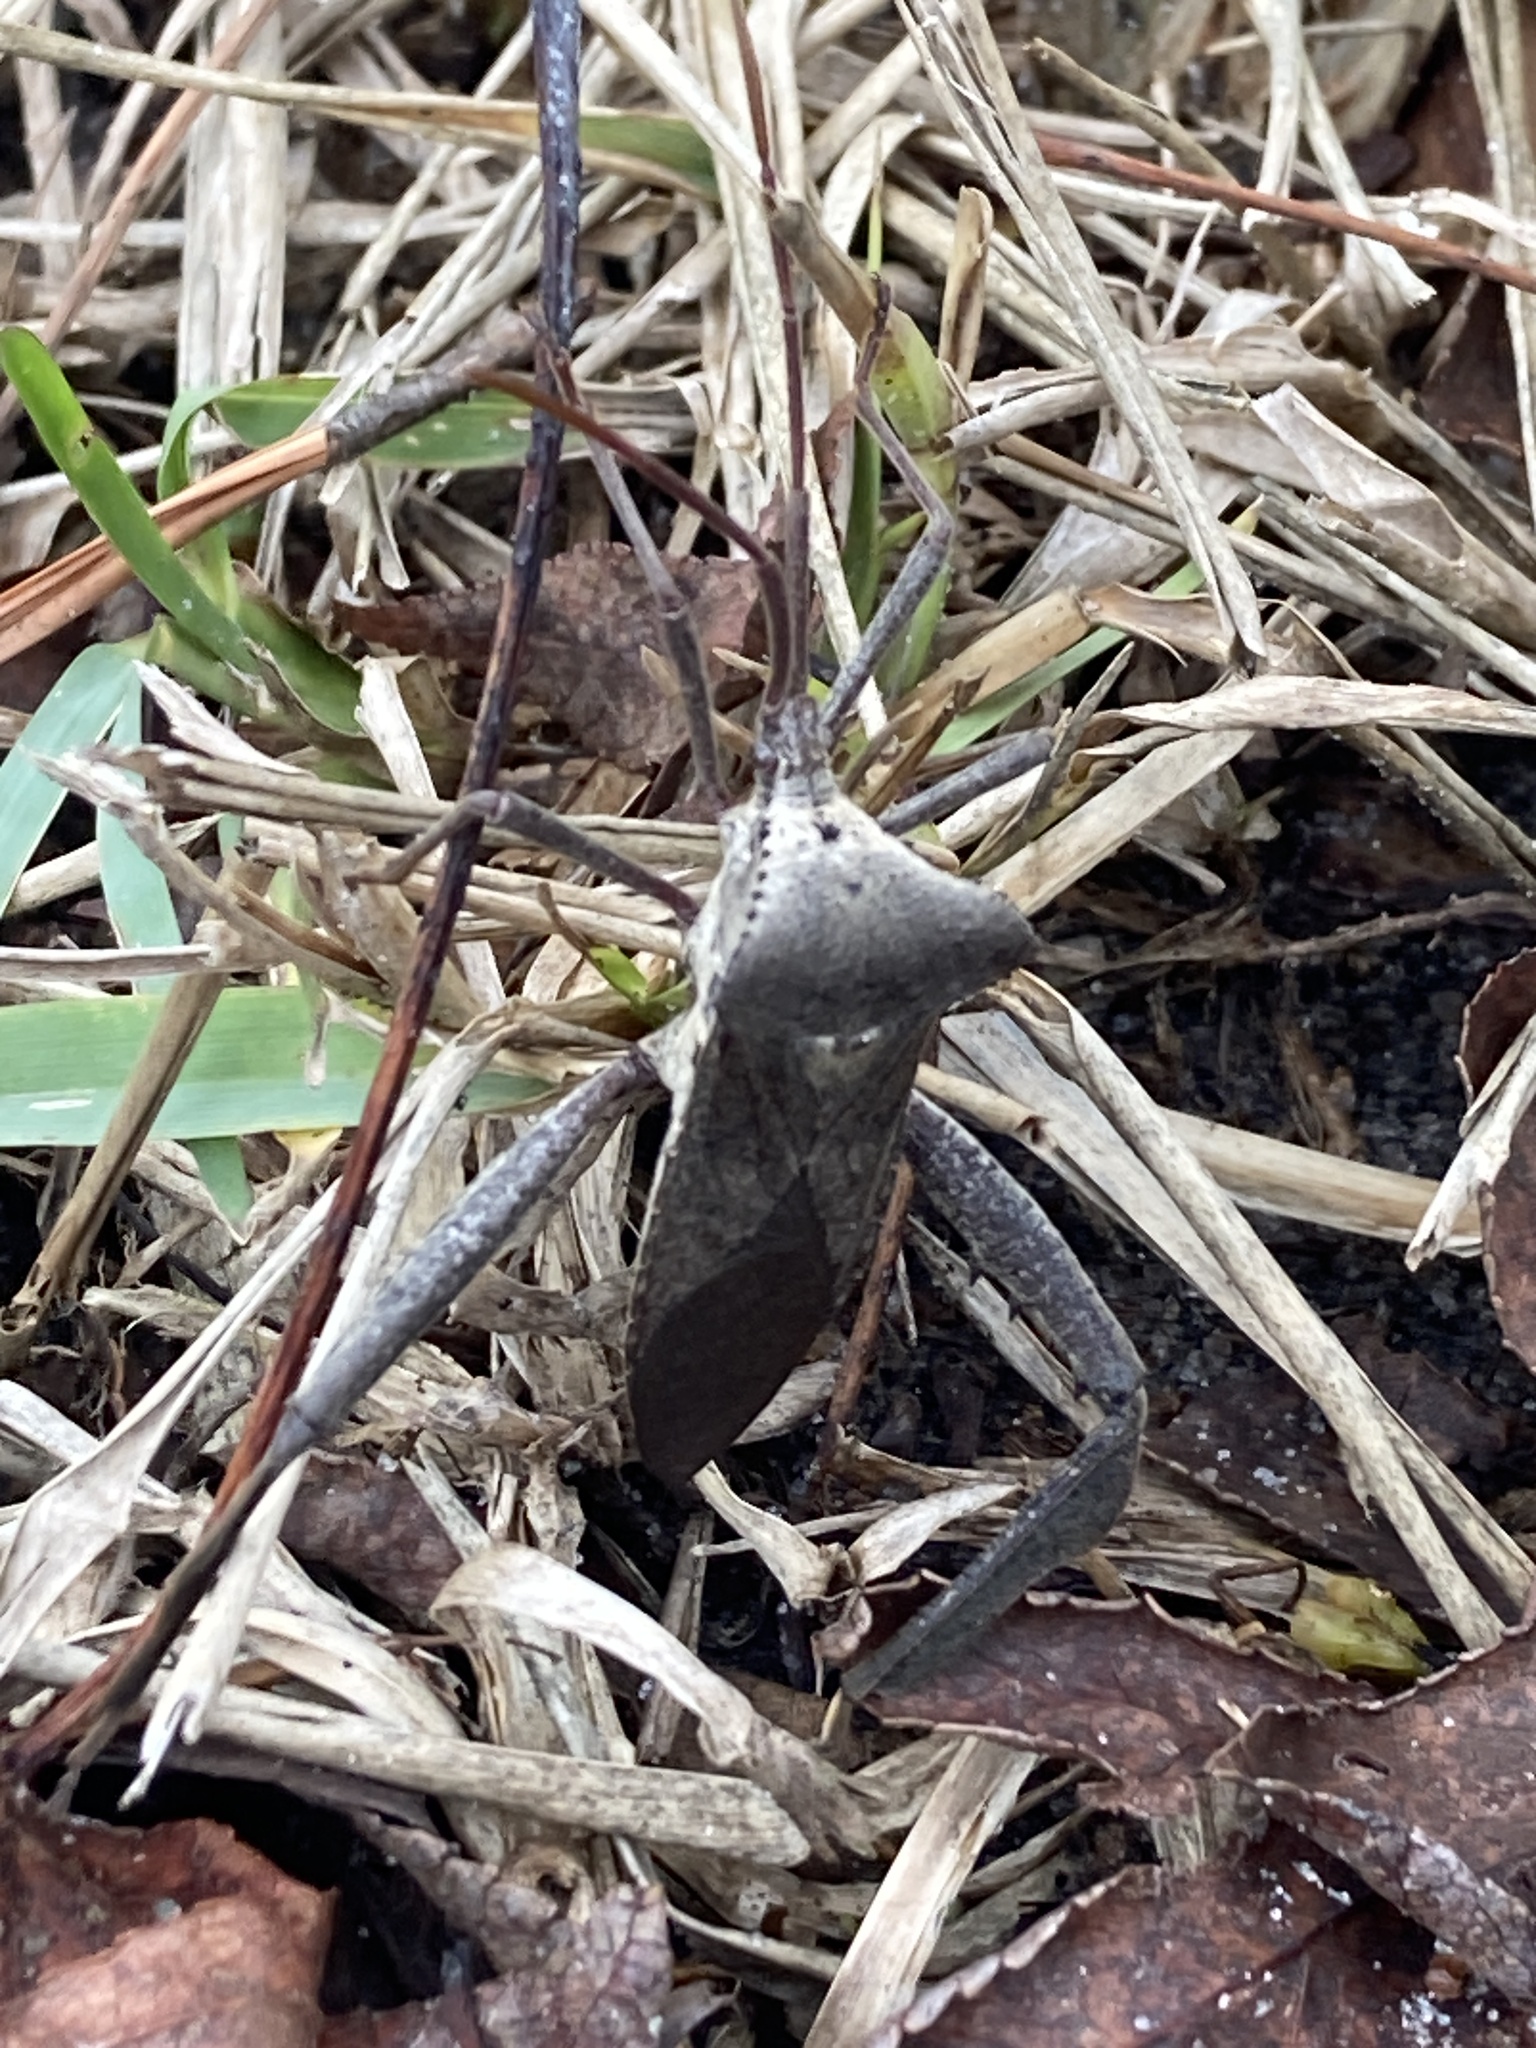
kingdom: Animalia
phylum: Arthropoda
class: Insecta
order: Hemiptera
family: Coreidae
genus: Acanthocephala
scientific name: Acanthocephala declivis
